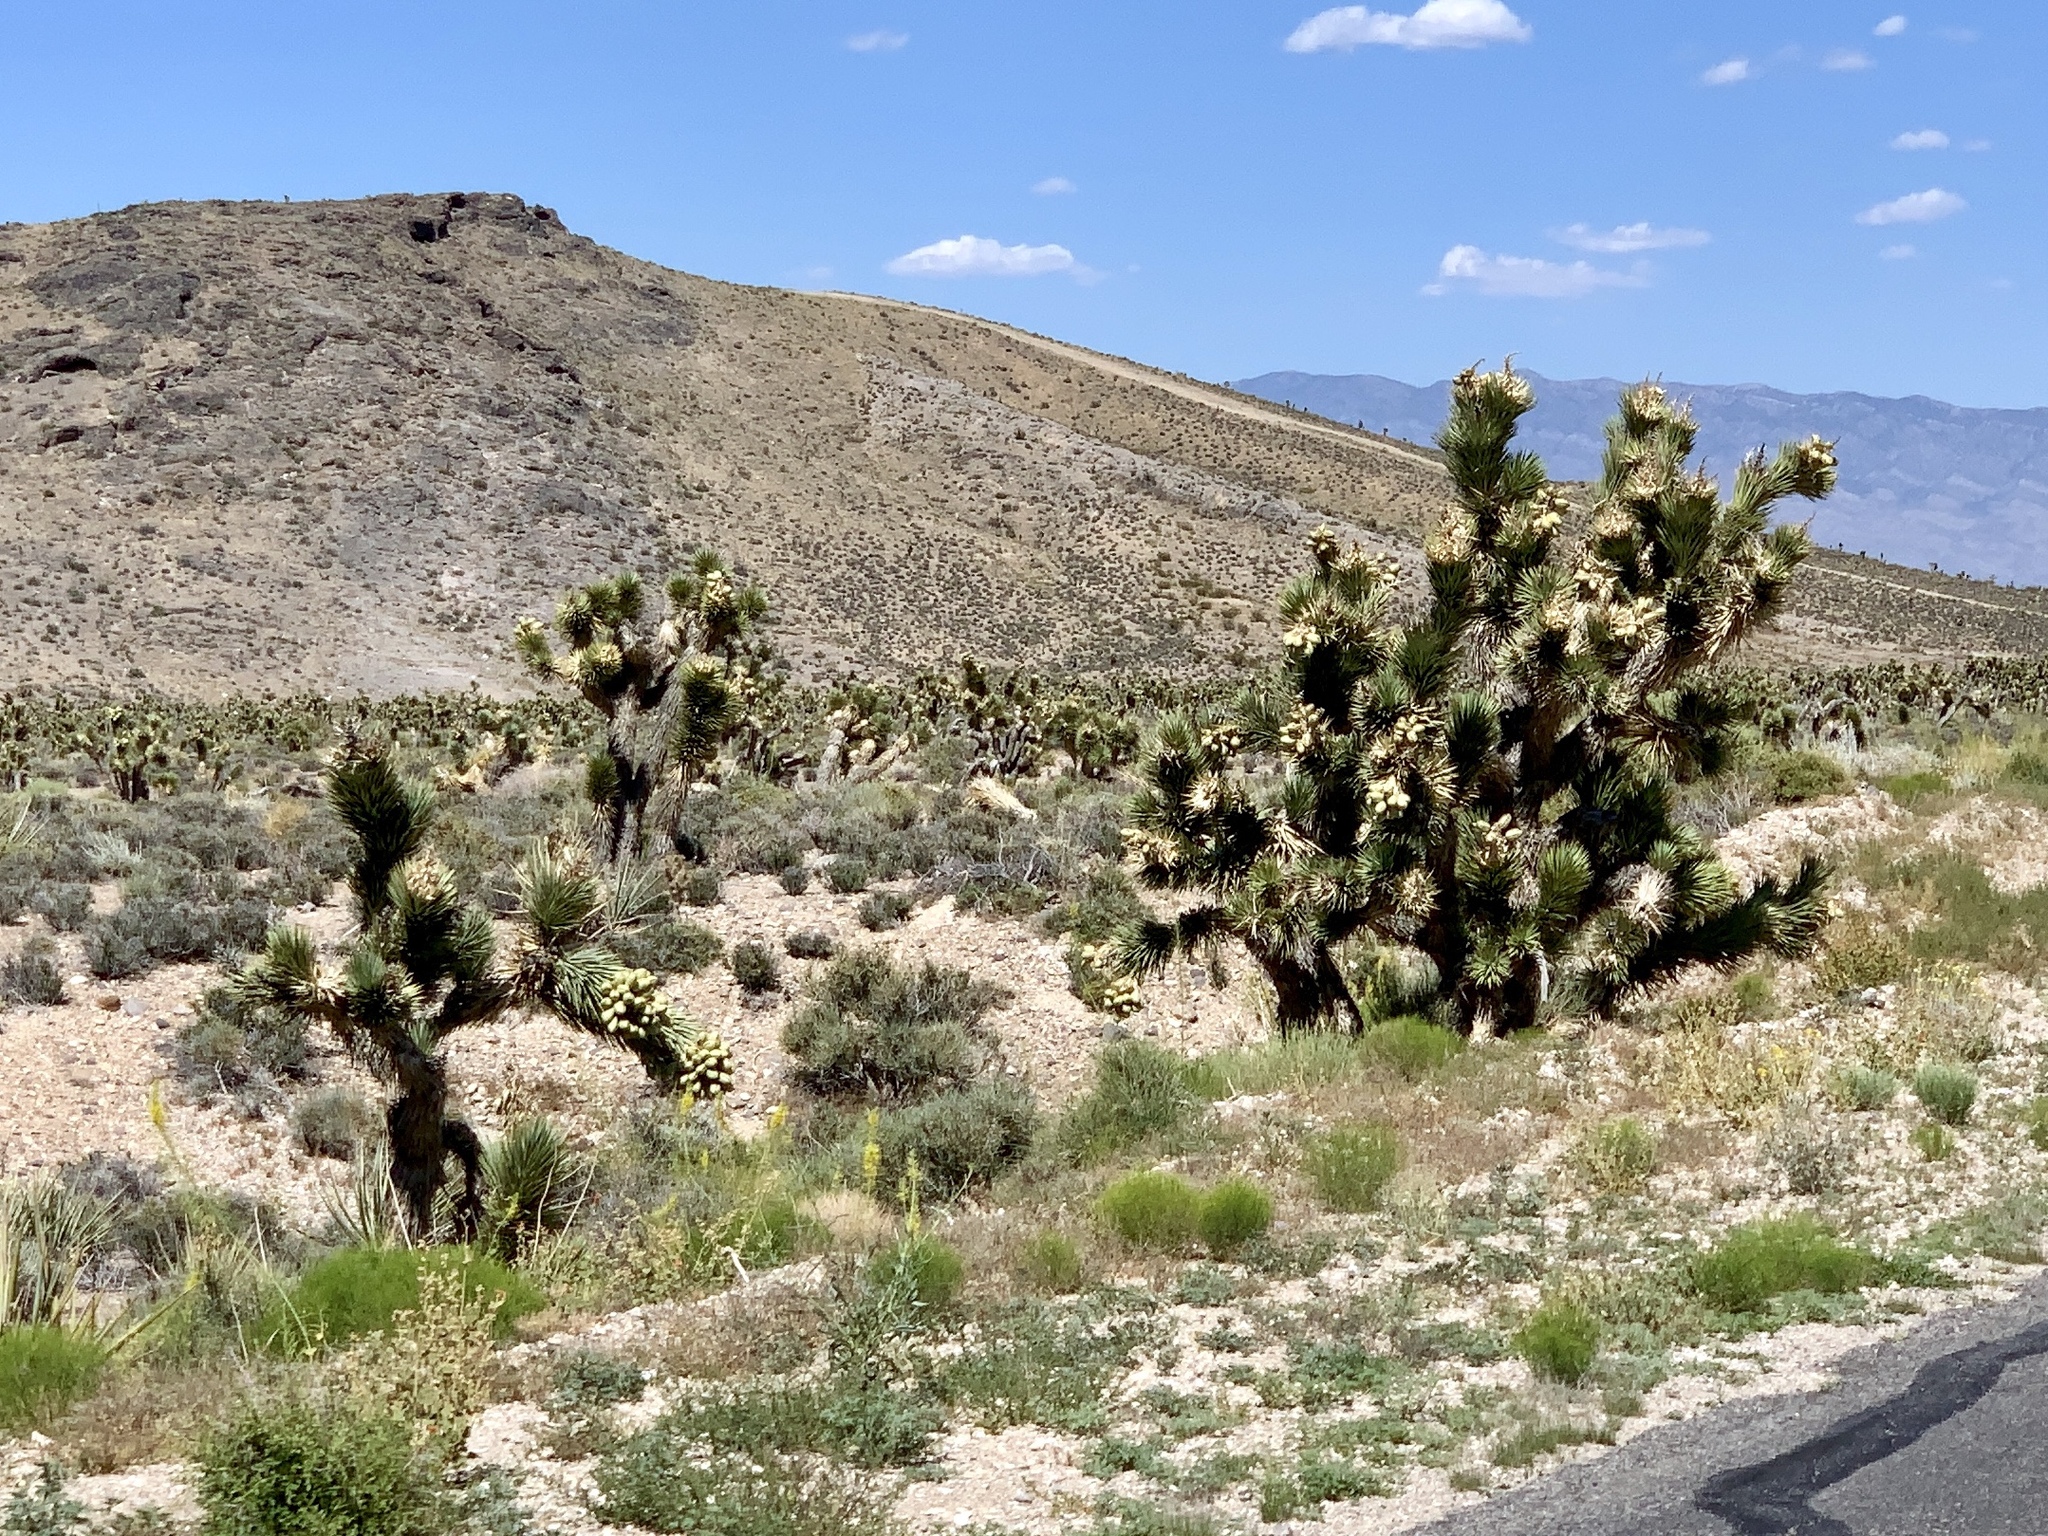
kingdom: Plantae
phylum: Tracheophyta
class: Liliopsida
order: Asparagales
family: Asparagaceae
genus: Yucca
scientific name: Yucca brevifolia
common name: Joshua tree
